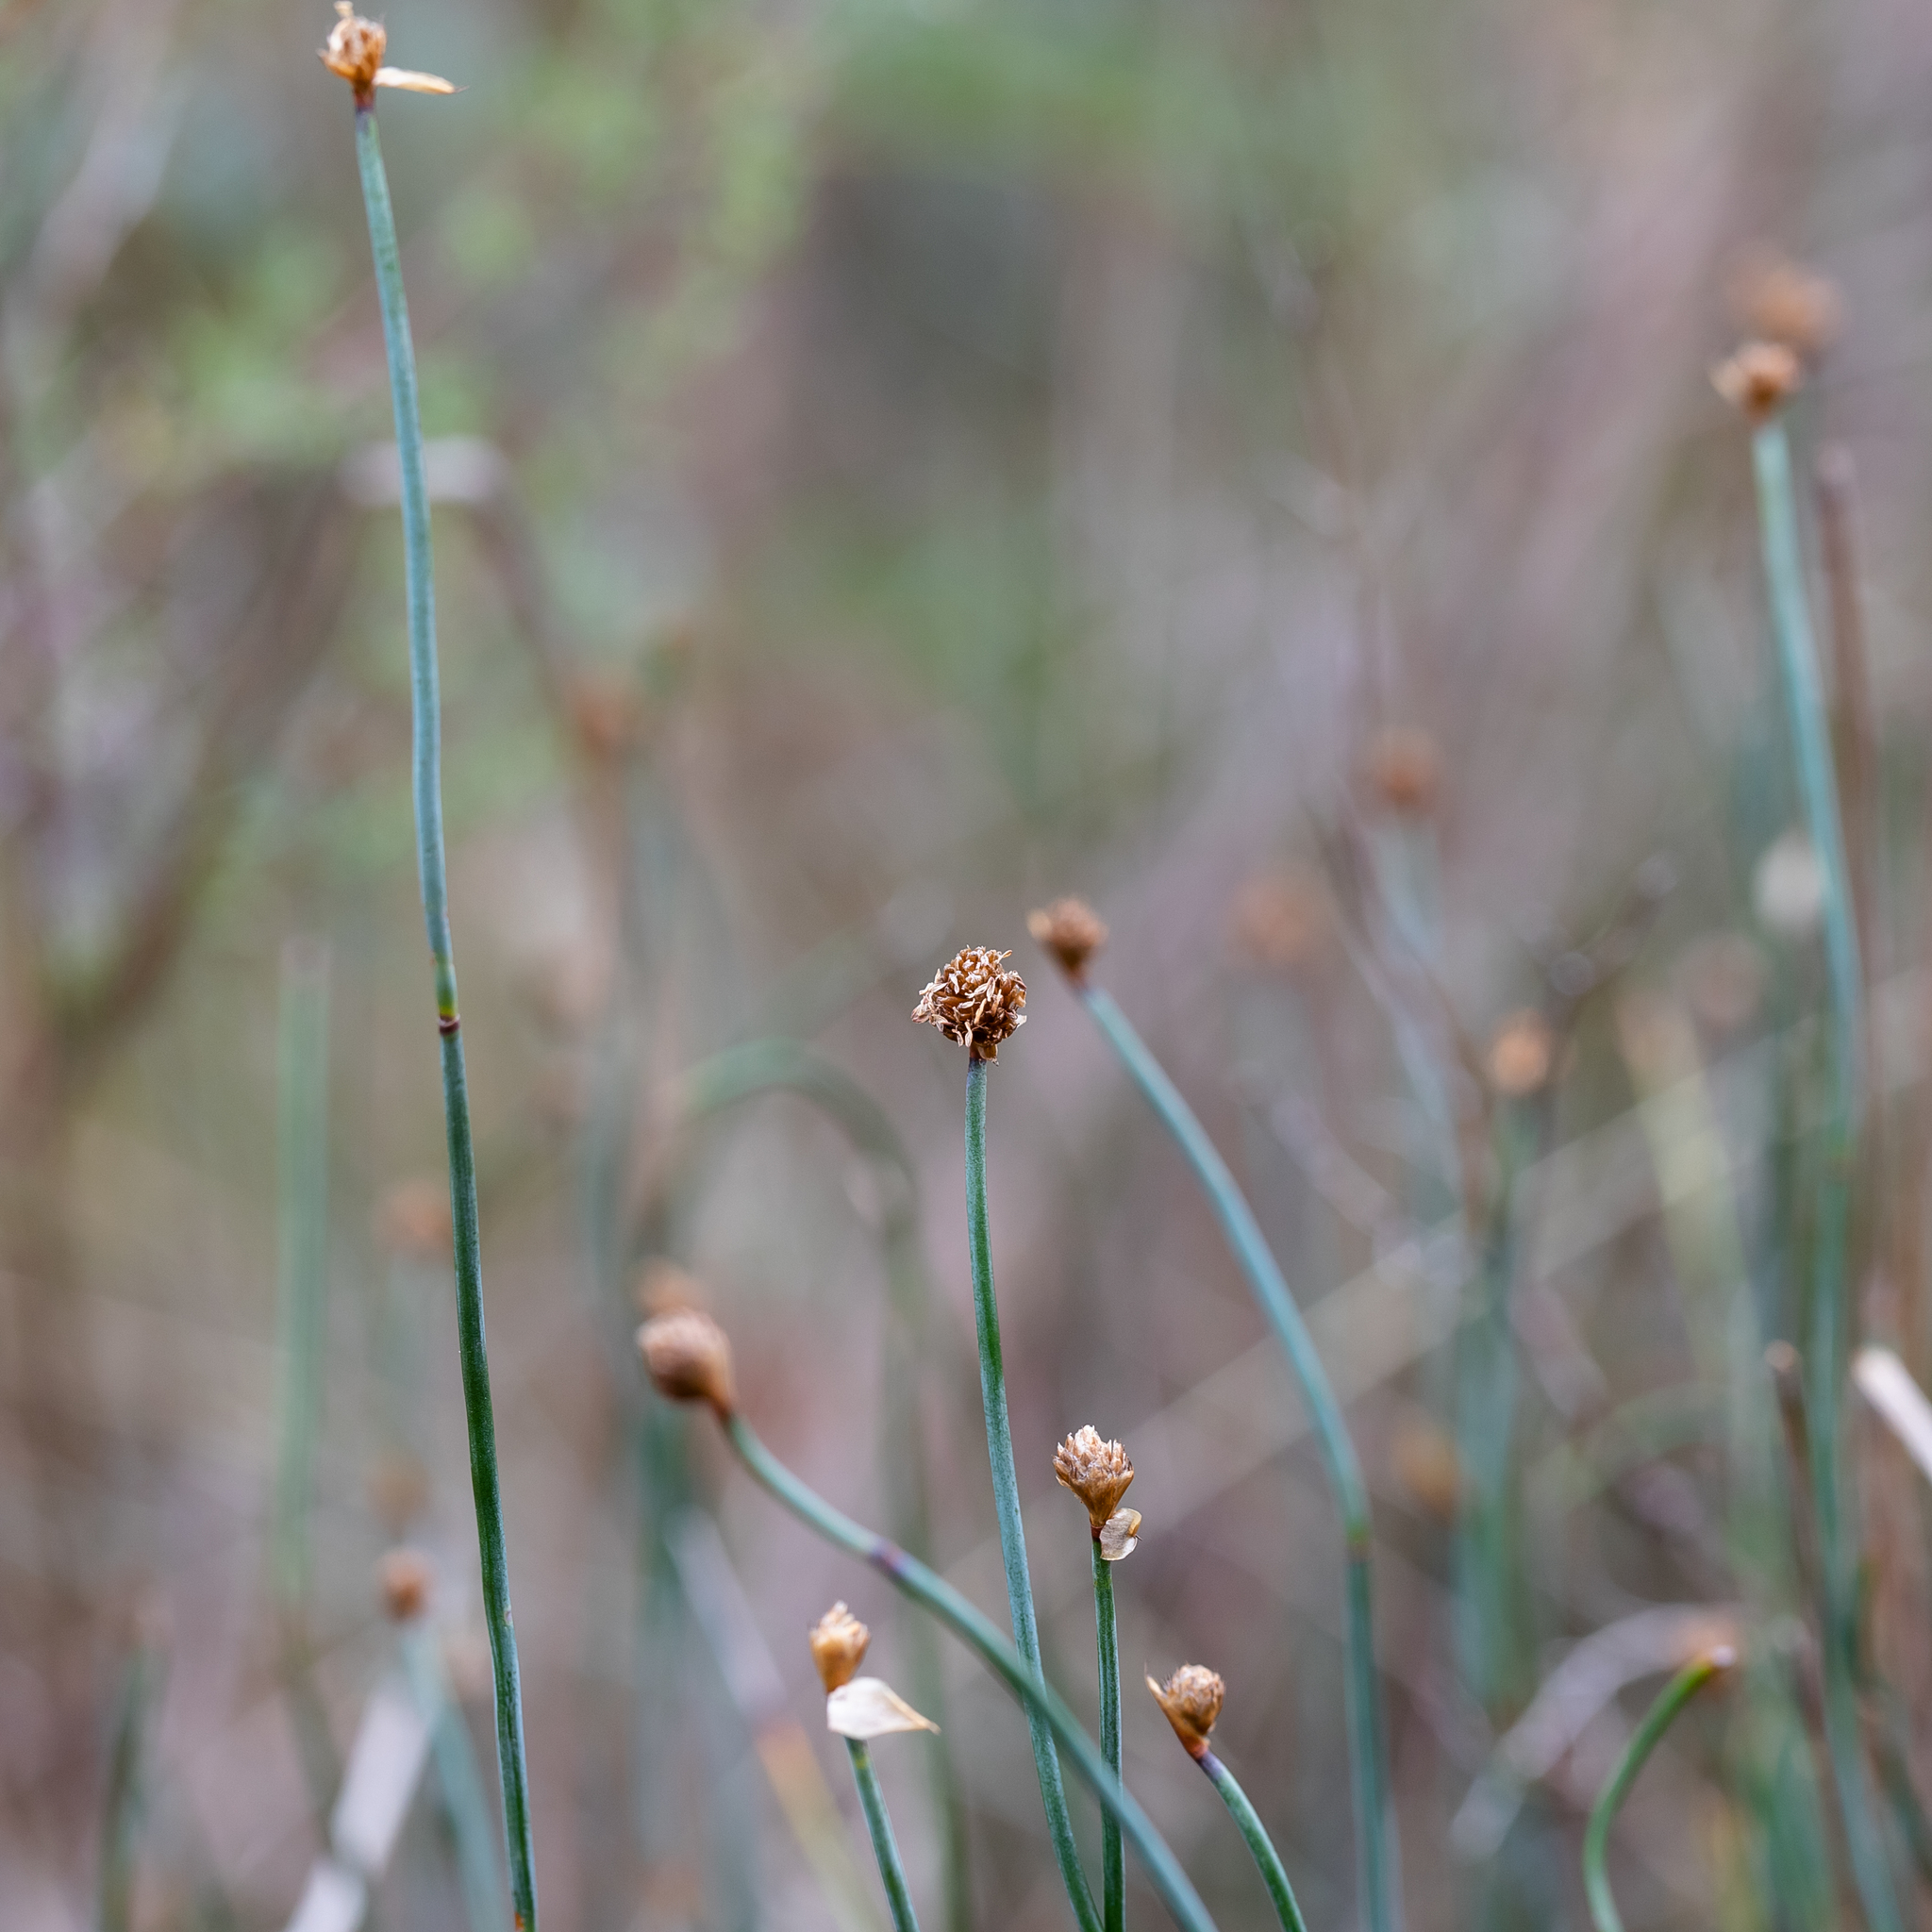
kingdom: Plantae
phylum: Tracheophyta
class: Liliopsida
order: Poales
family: Restionaceae
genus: Lepidobolus
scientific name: Lepidobolus drapetocoleus
